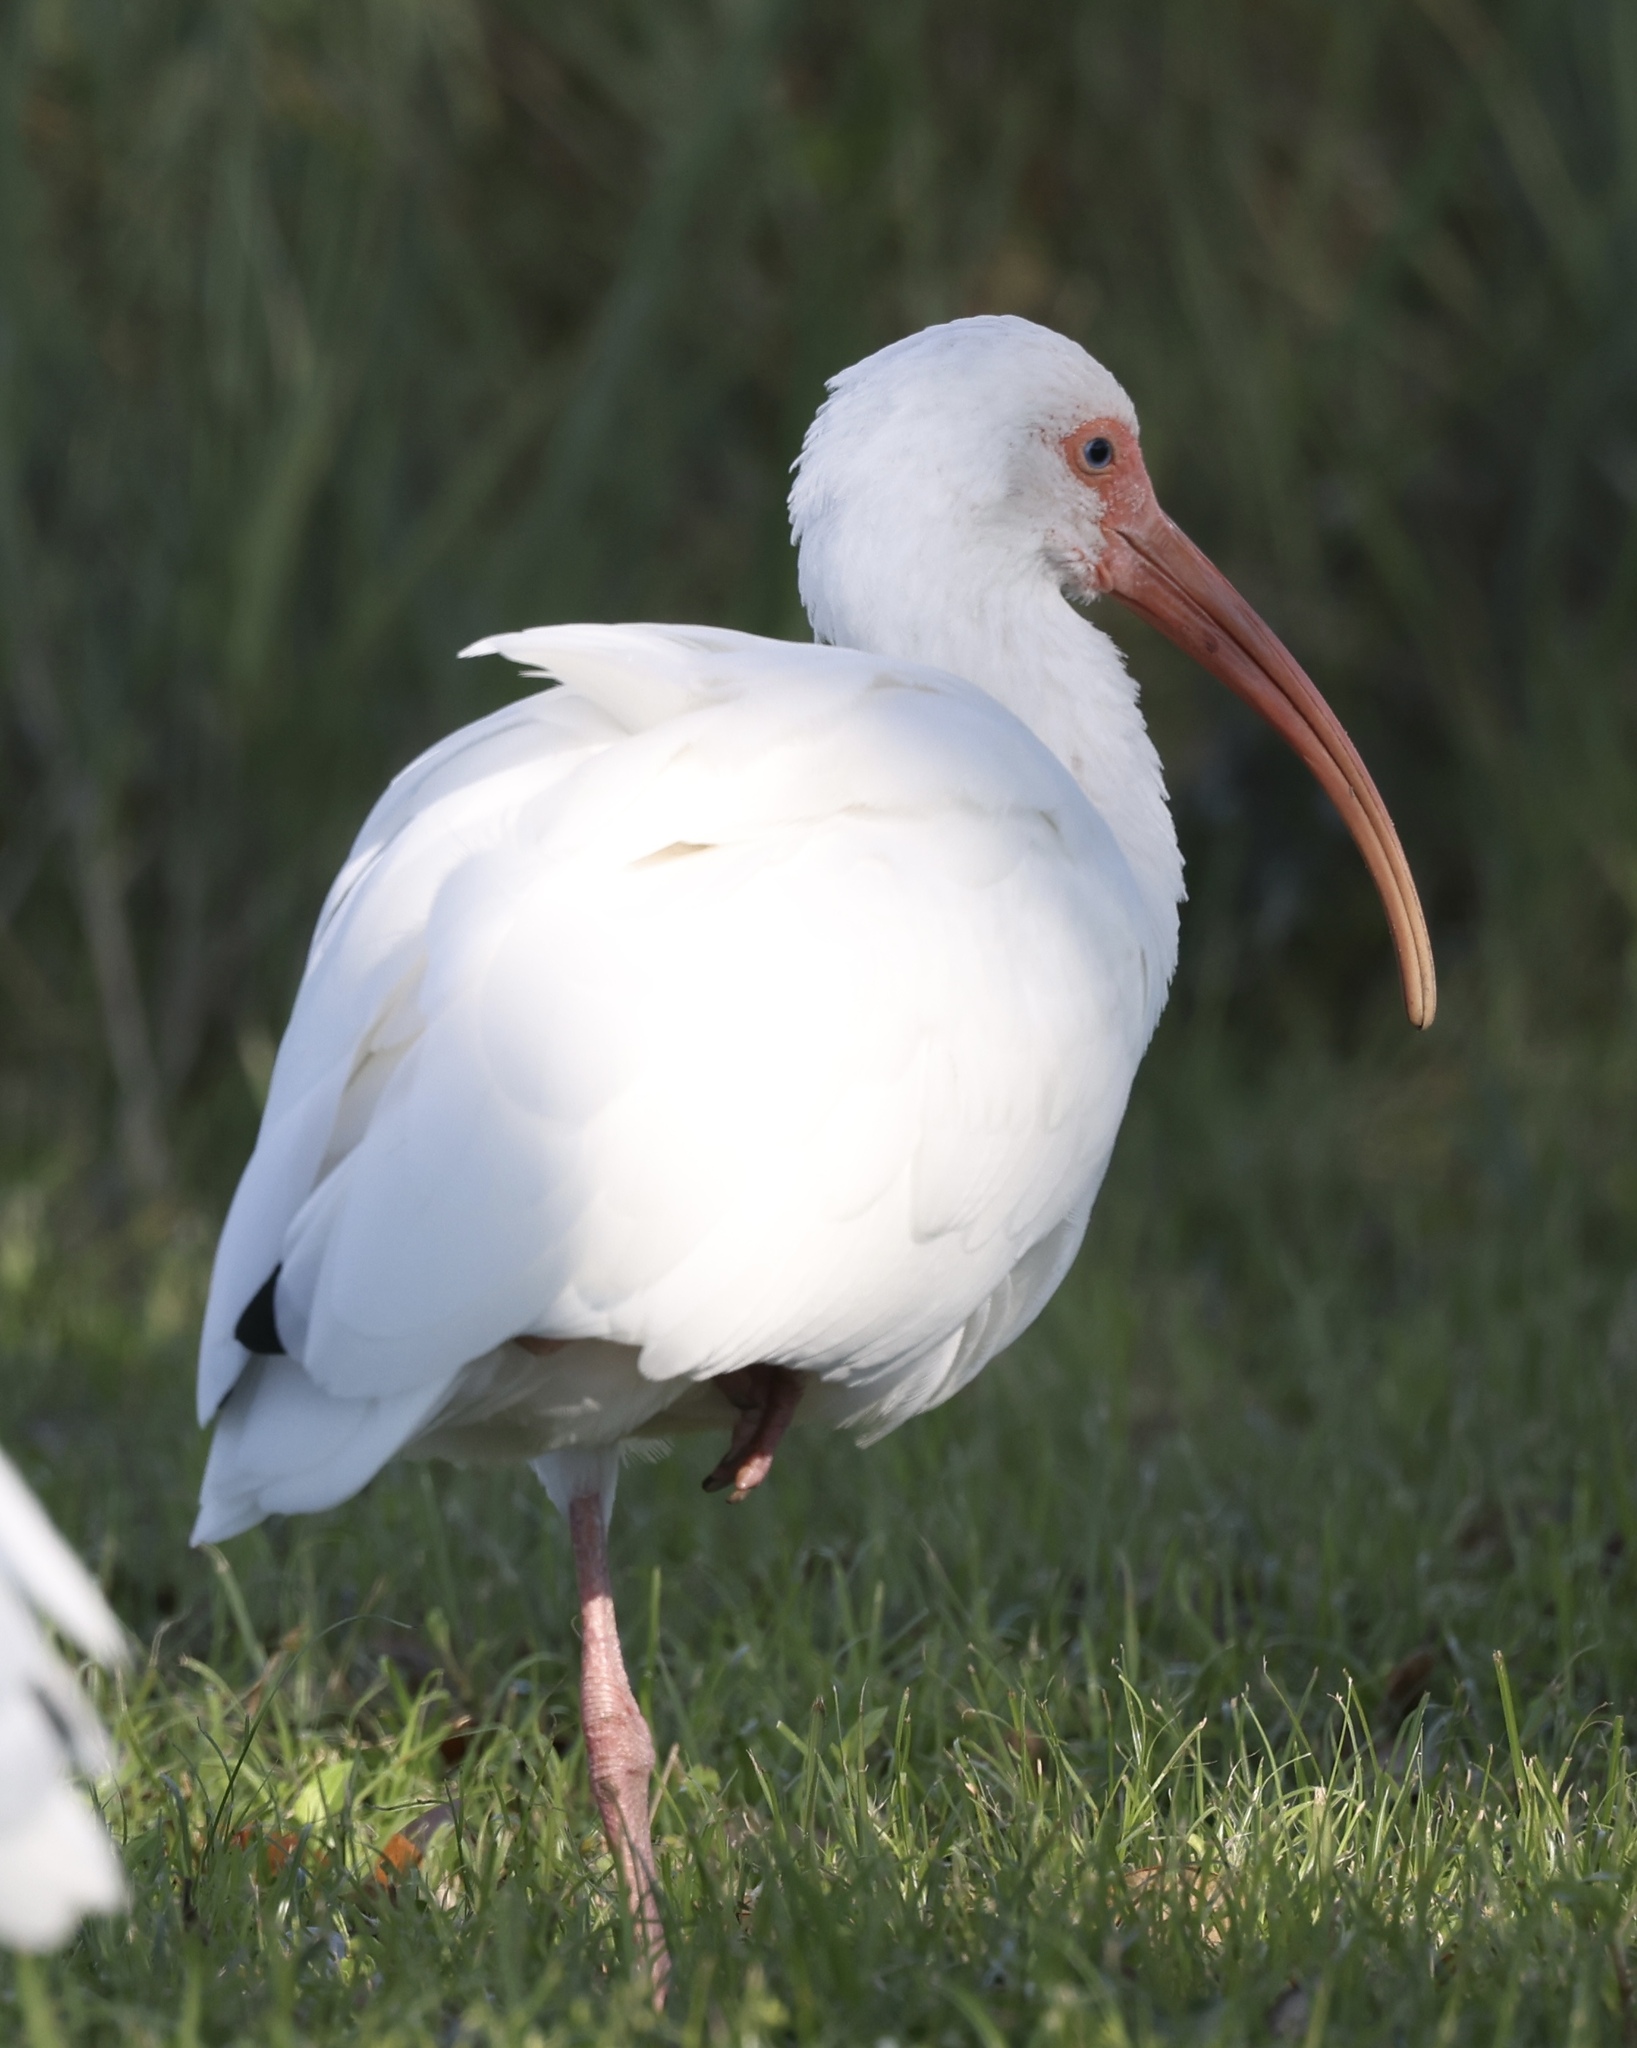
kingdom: Animalia
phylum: Chordata
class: Aves
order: Pelecaniformes
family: Threskiornithidae
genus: Eudocimus
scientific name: Eudocimus albus
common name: White ibis
